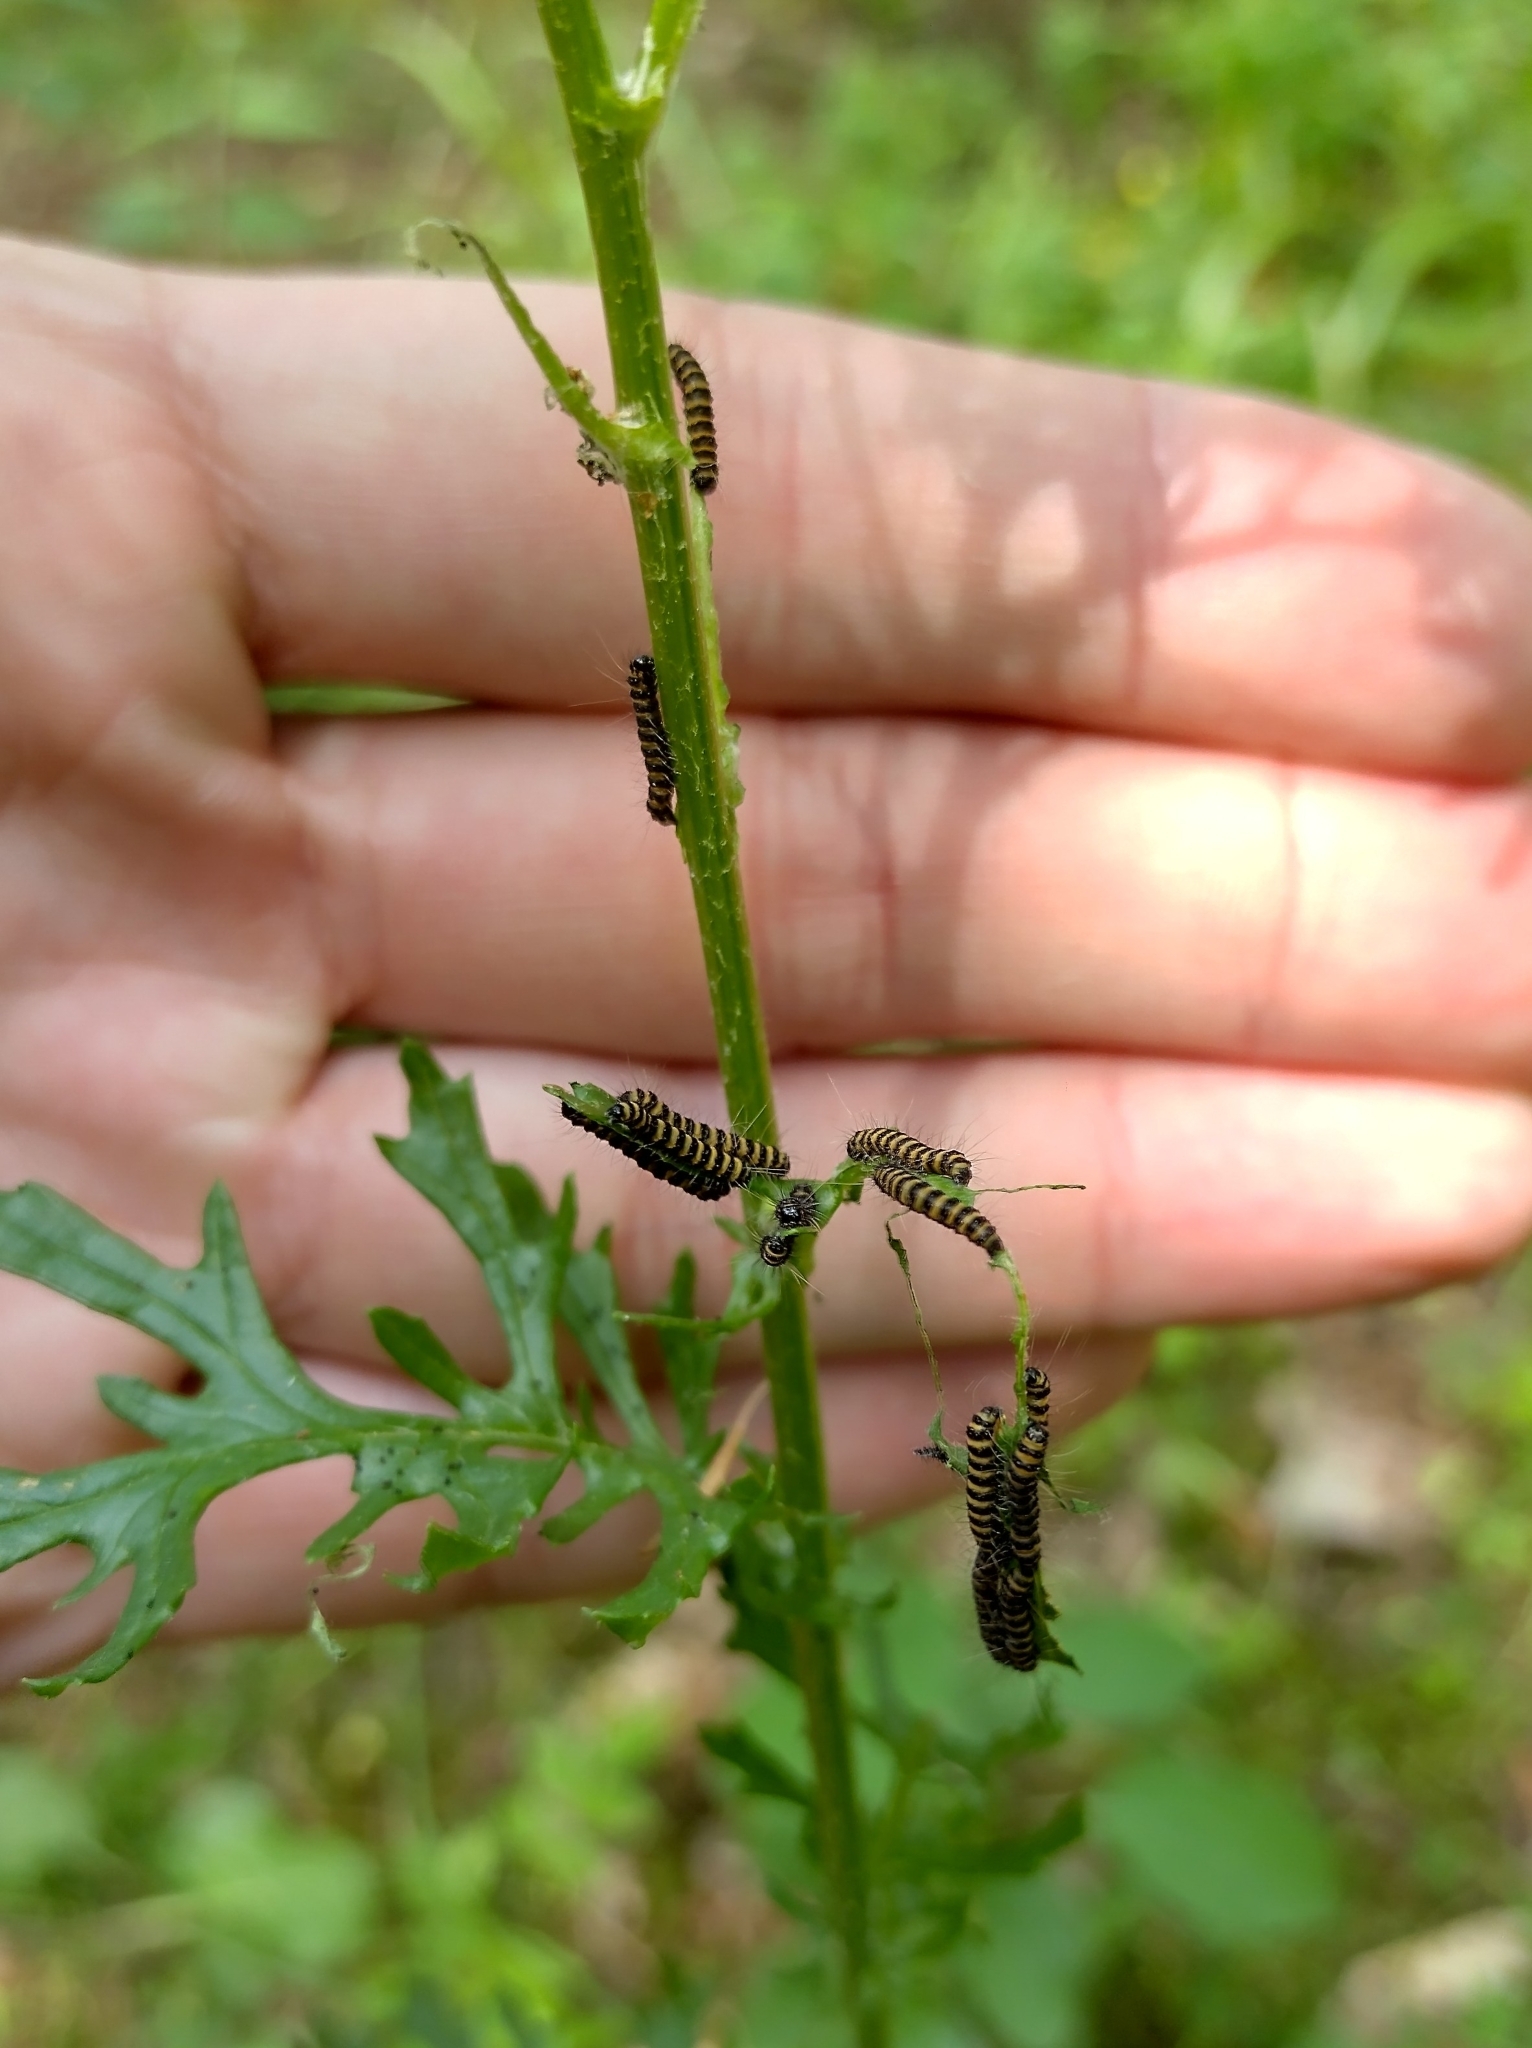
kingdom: Animalia
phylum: Arthropoda
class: Insecta
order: Lepidoptera
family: Erebidae
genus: Tyria
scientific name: Tyria jacobaeae
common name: Cinnabar
